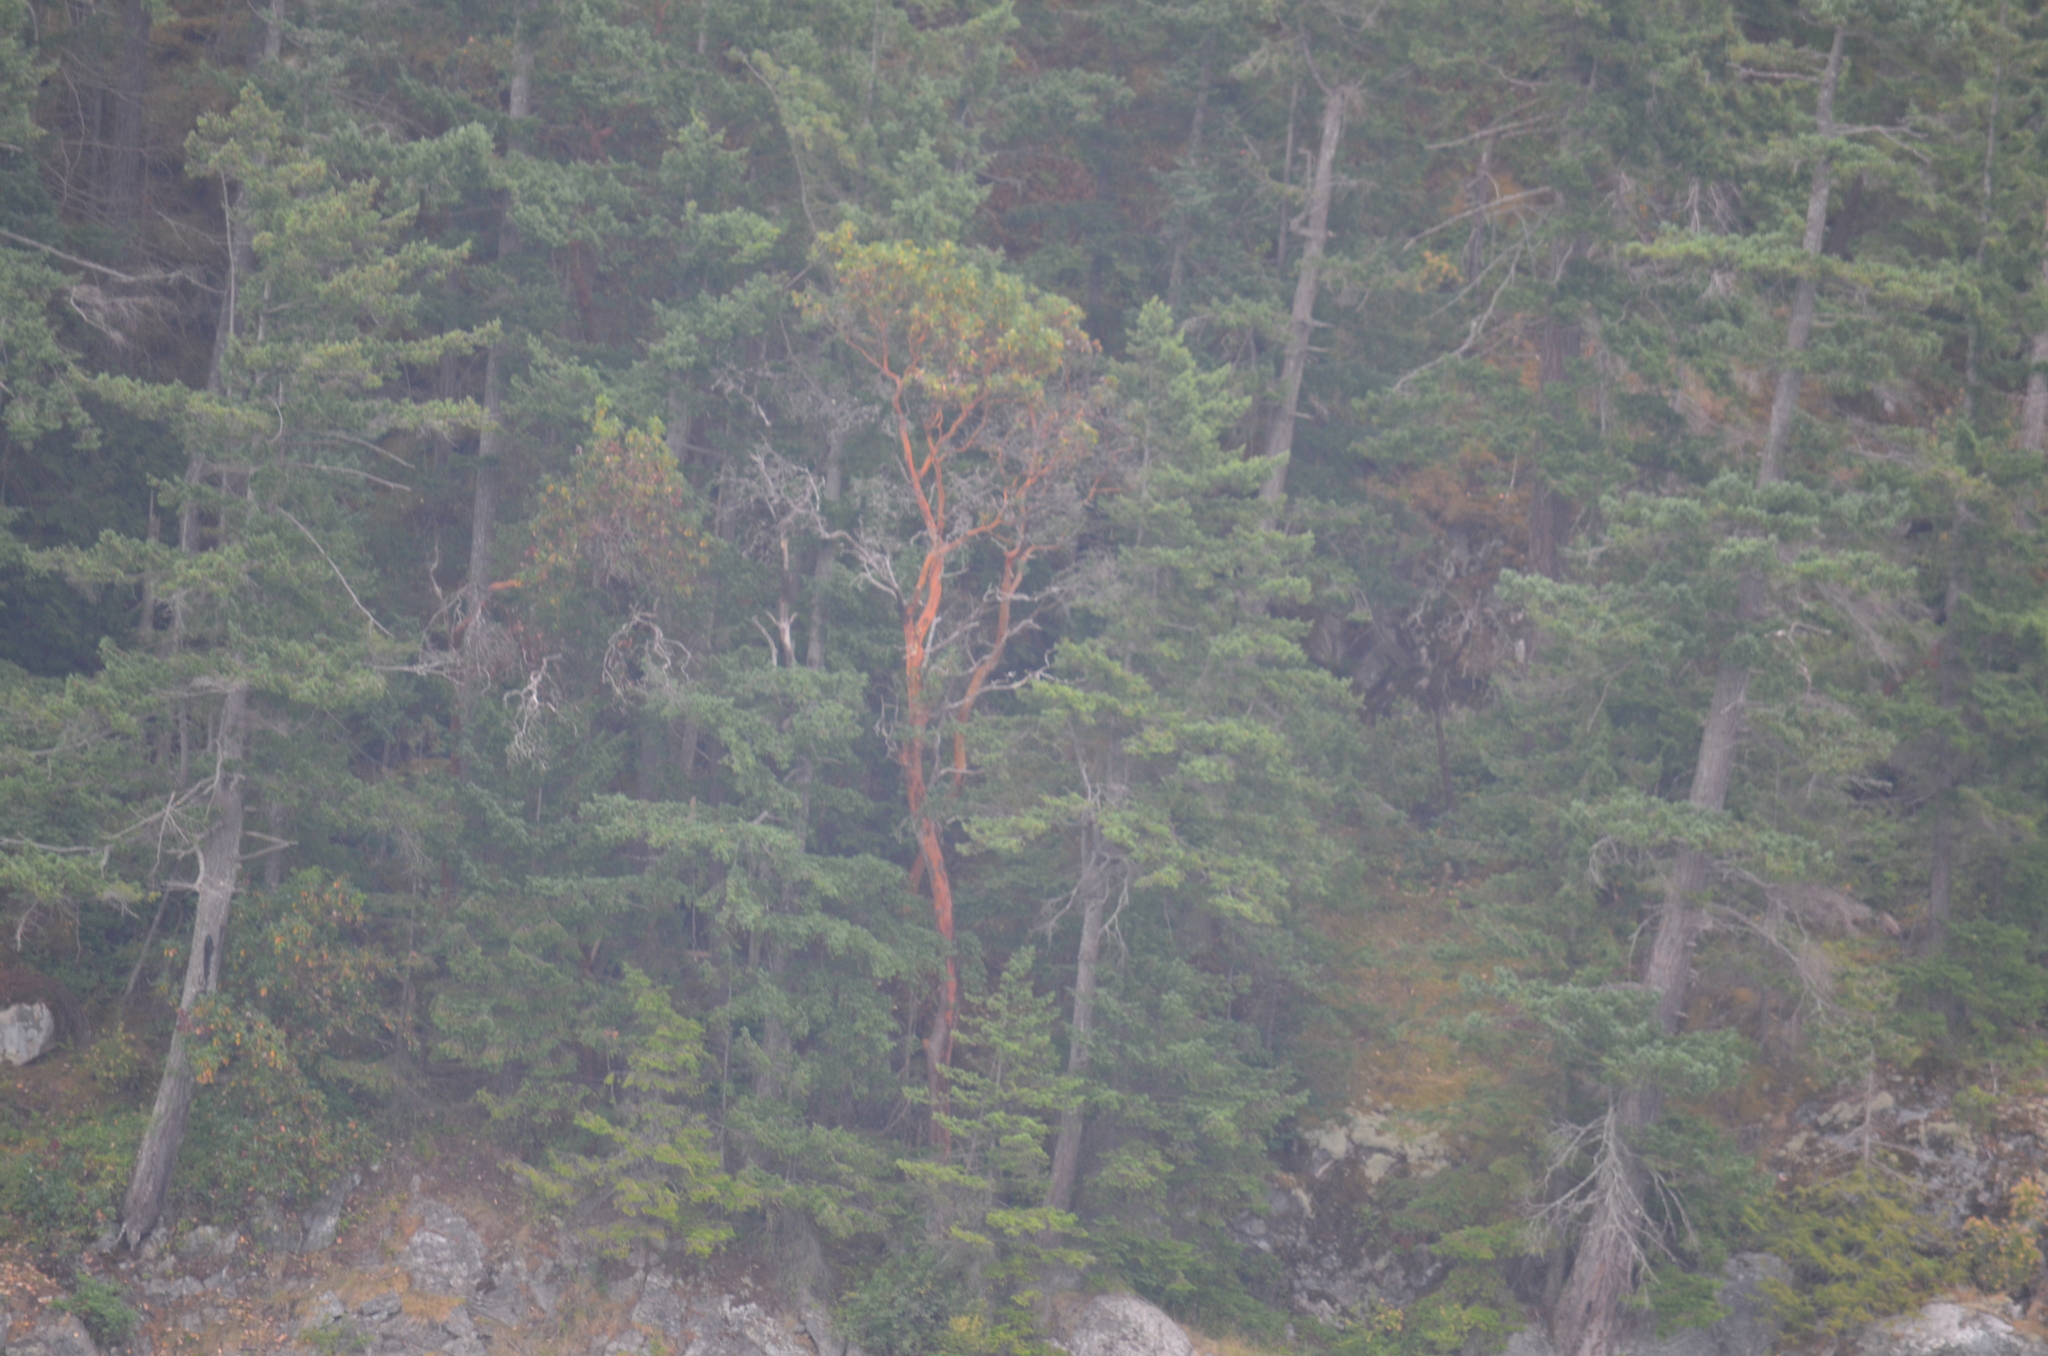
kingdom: Plantae
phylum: Tracheophyta
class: Magnoliopsida
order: Ericales
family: Ericaceae
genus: Arbutus
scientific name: Arbutus menziesii
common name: Pacific madrone
